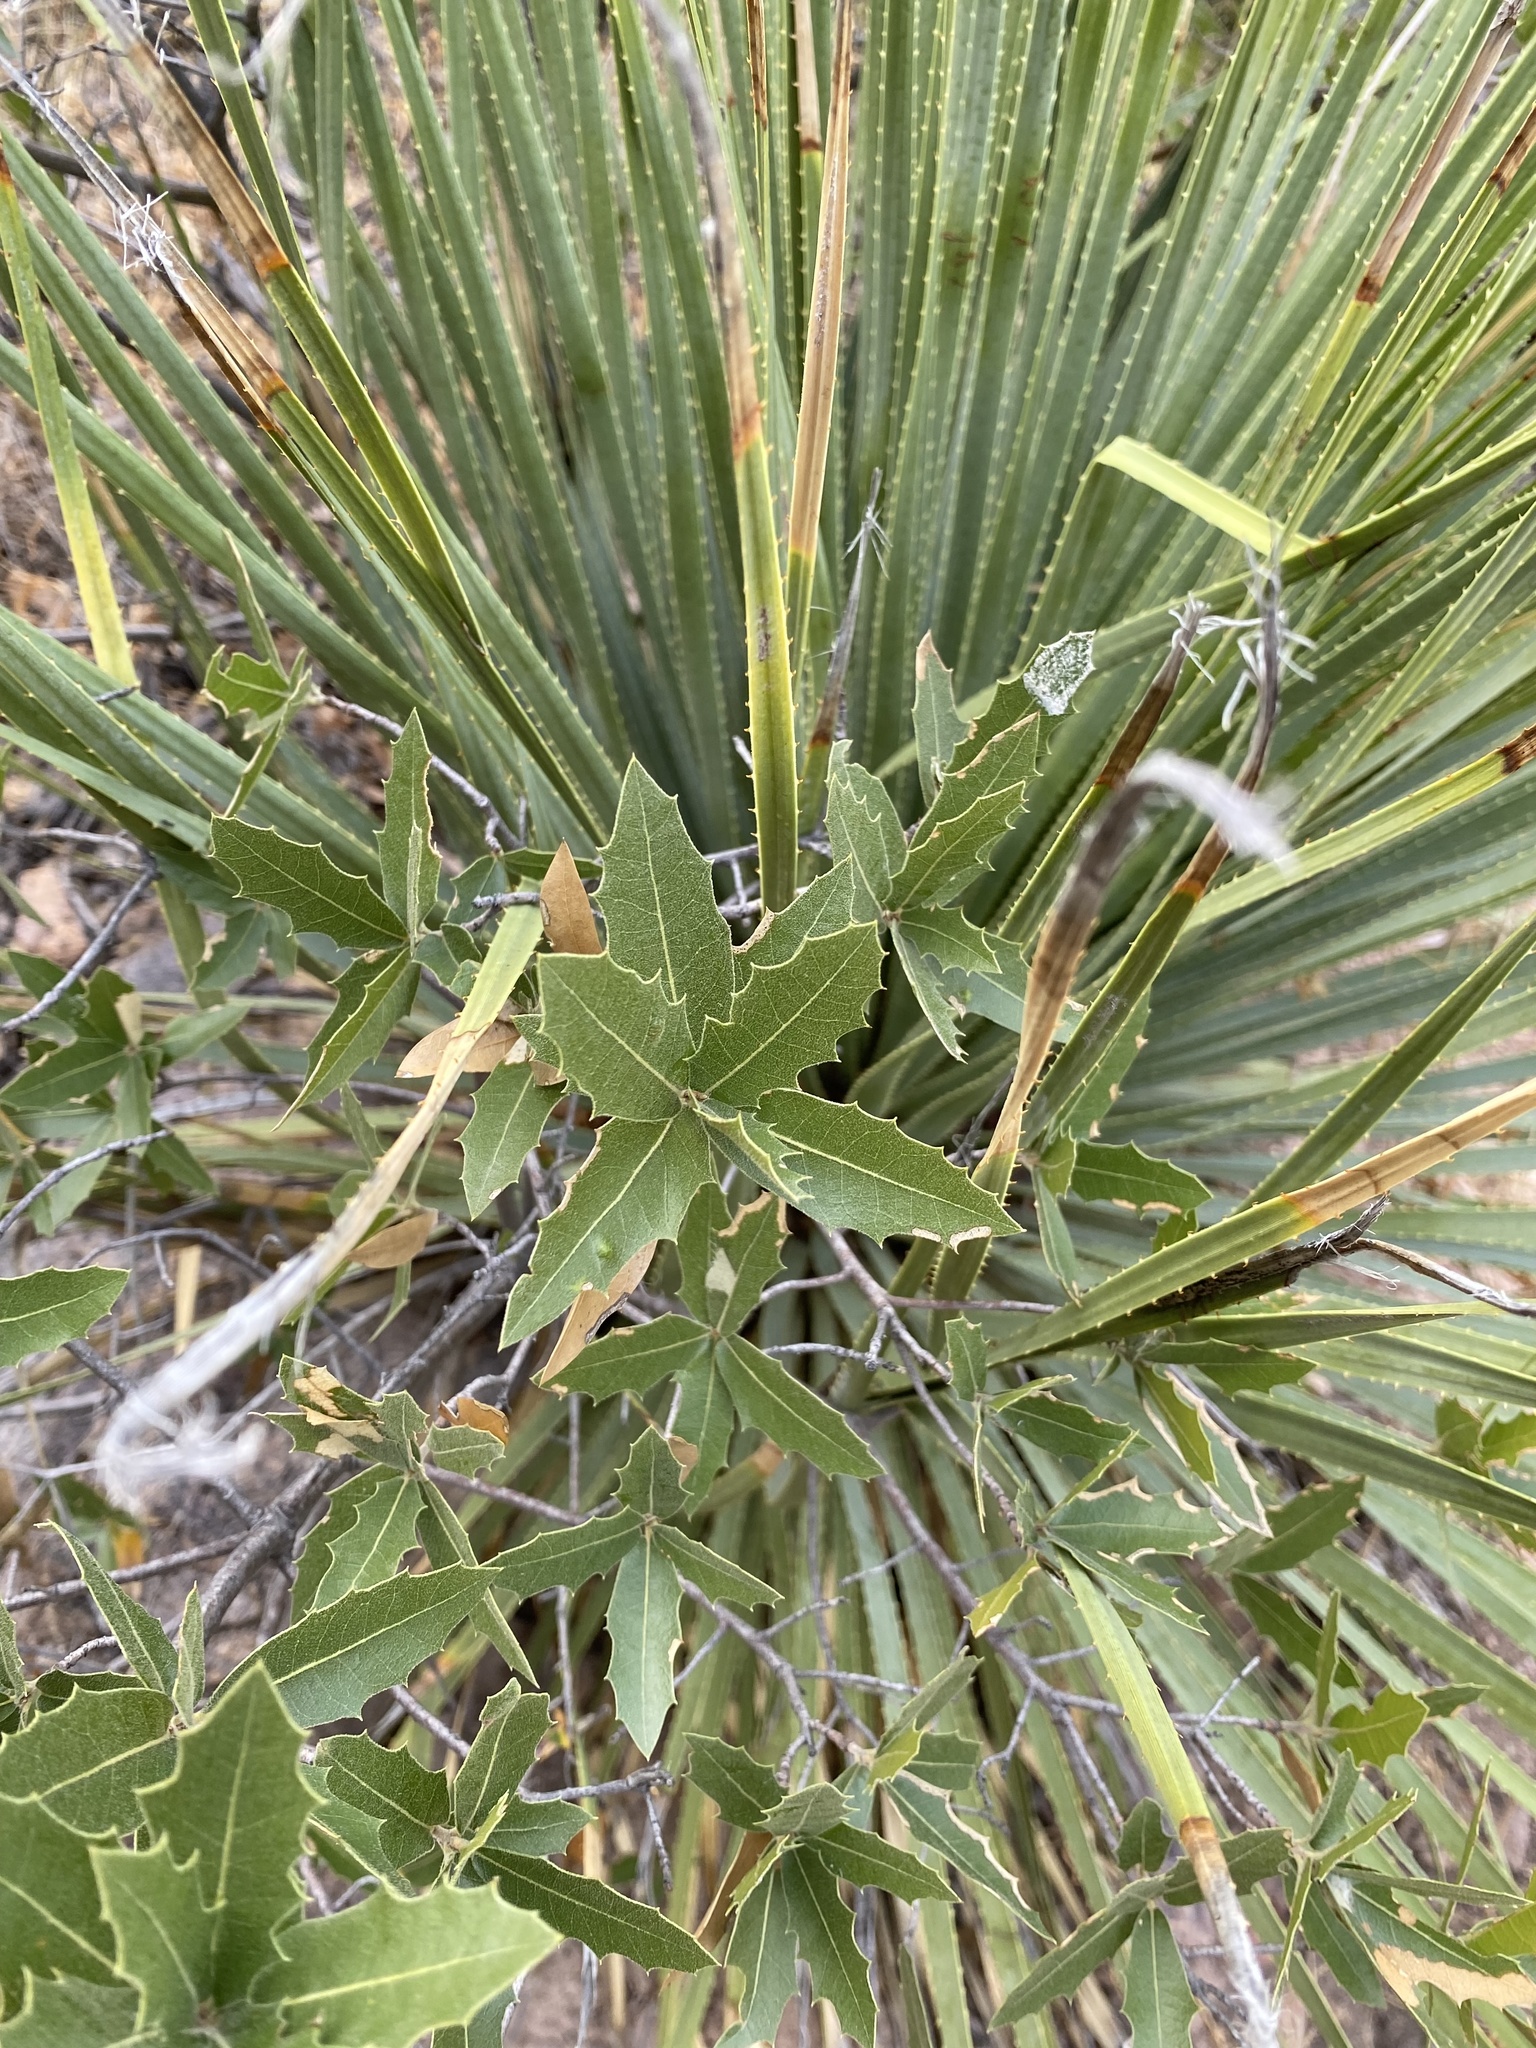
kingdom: Plantae
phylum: Tracheophyta
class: Magnoliopsida
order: Fagales
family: Fagaceae
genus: Quercus
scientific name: Quercus emoryi
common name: Emory oak
